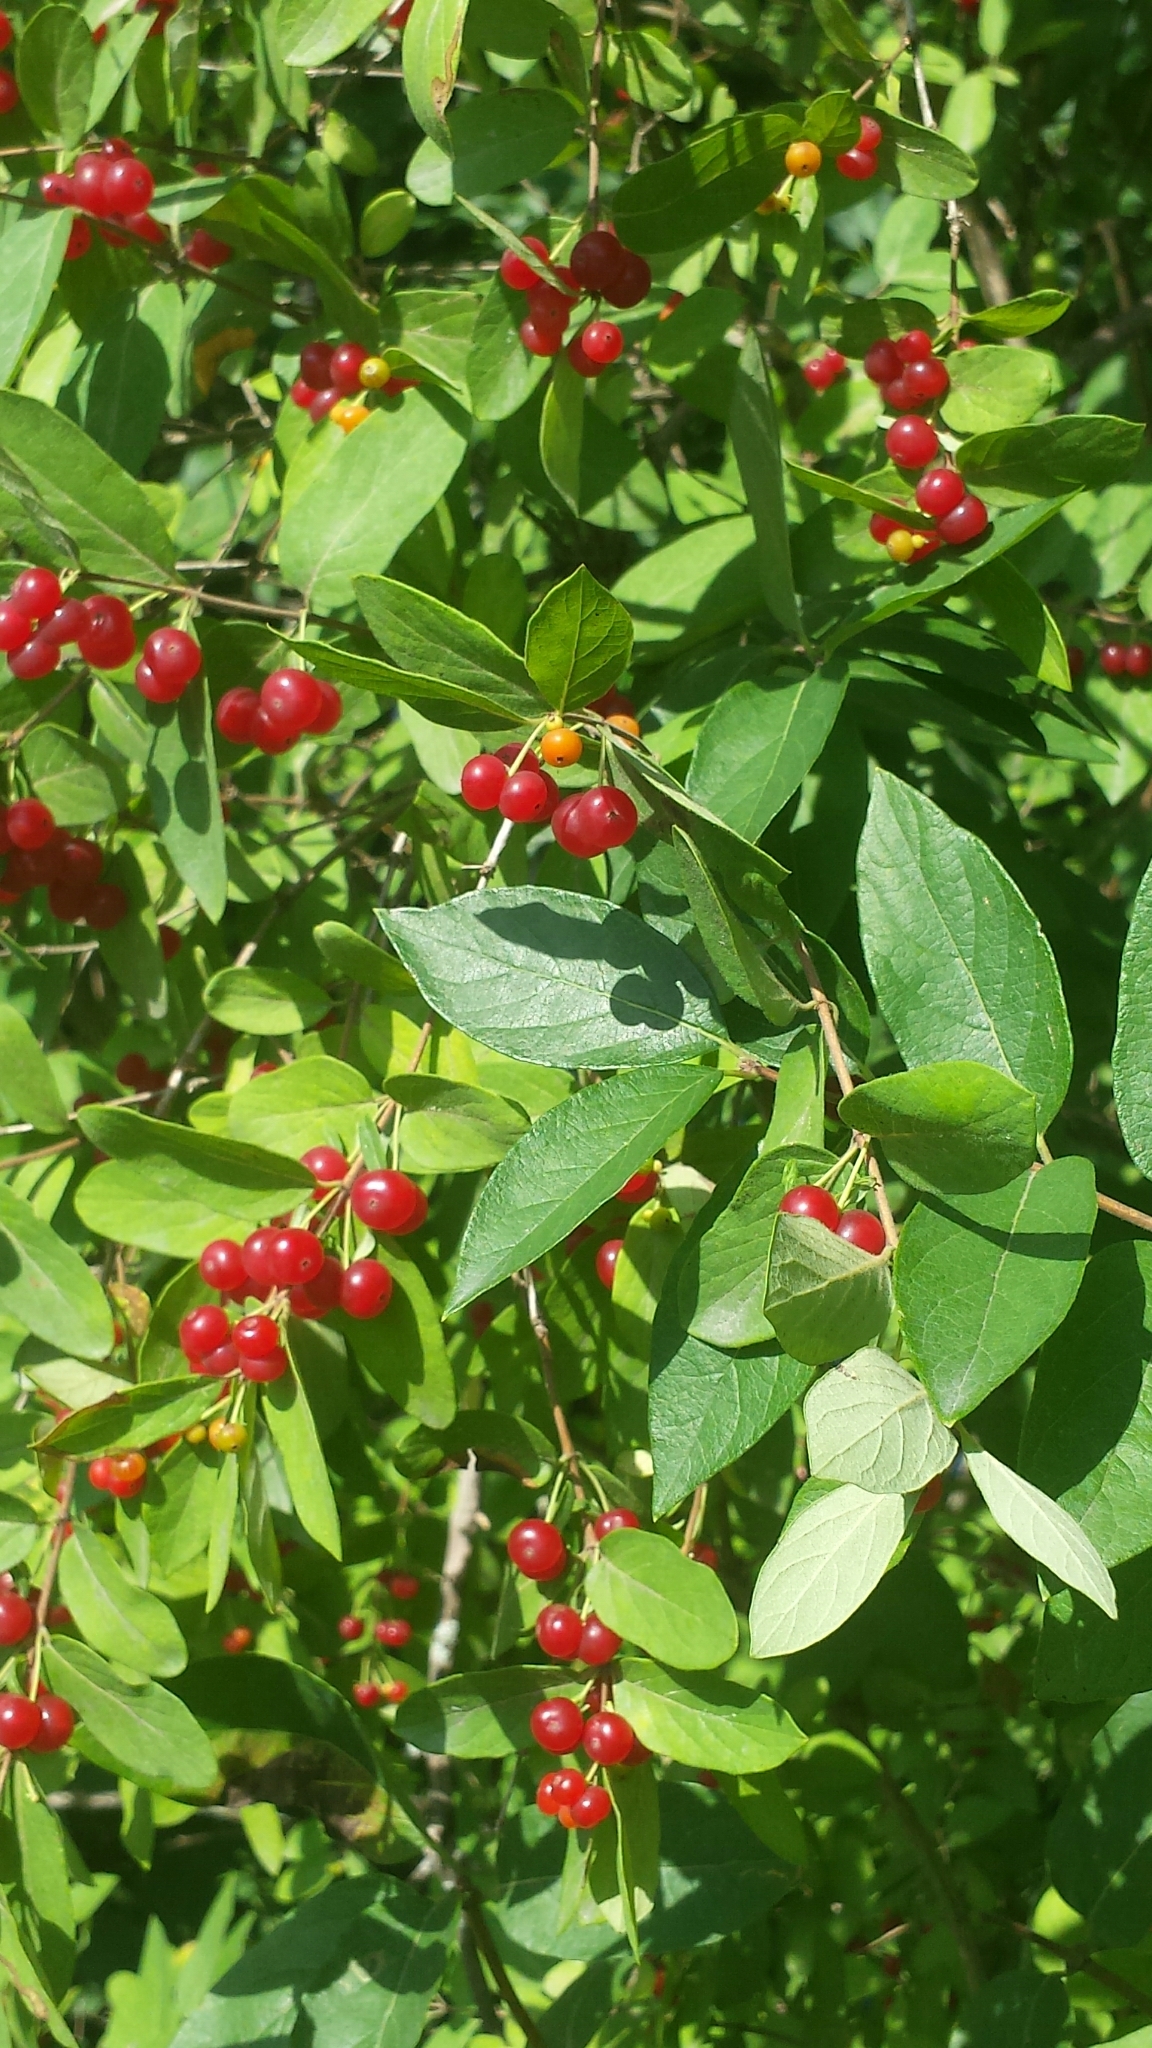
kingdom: Plantae
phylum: Tracheophyta
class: Magnoliopsida
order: Dipsacales
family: Caprifoliaceae
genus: Lonicera
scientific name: Lonicera morrowii
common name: Morrow's honeysuckle
